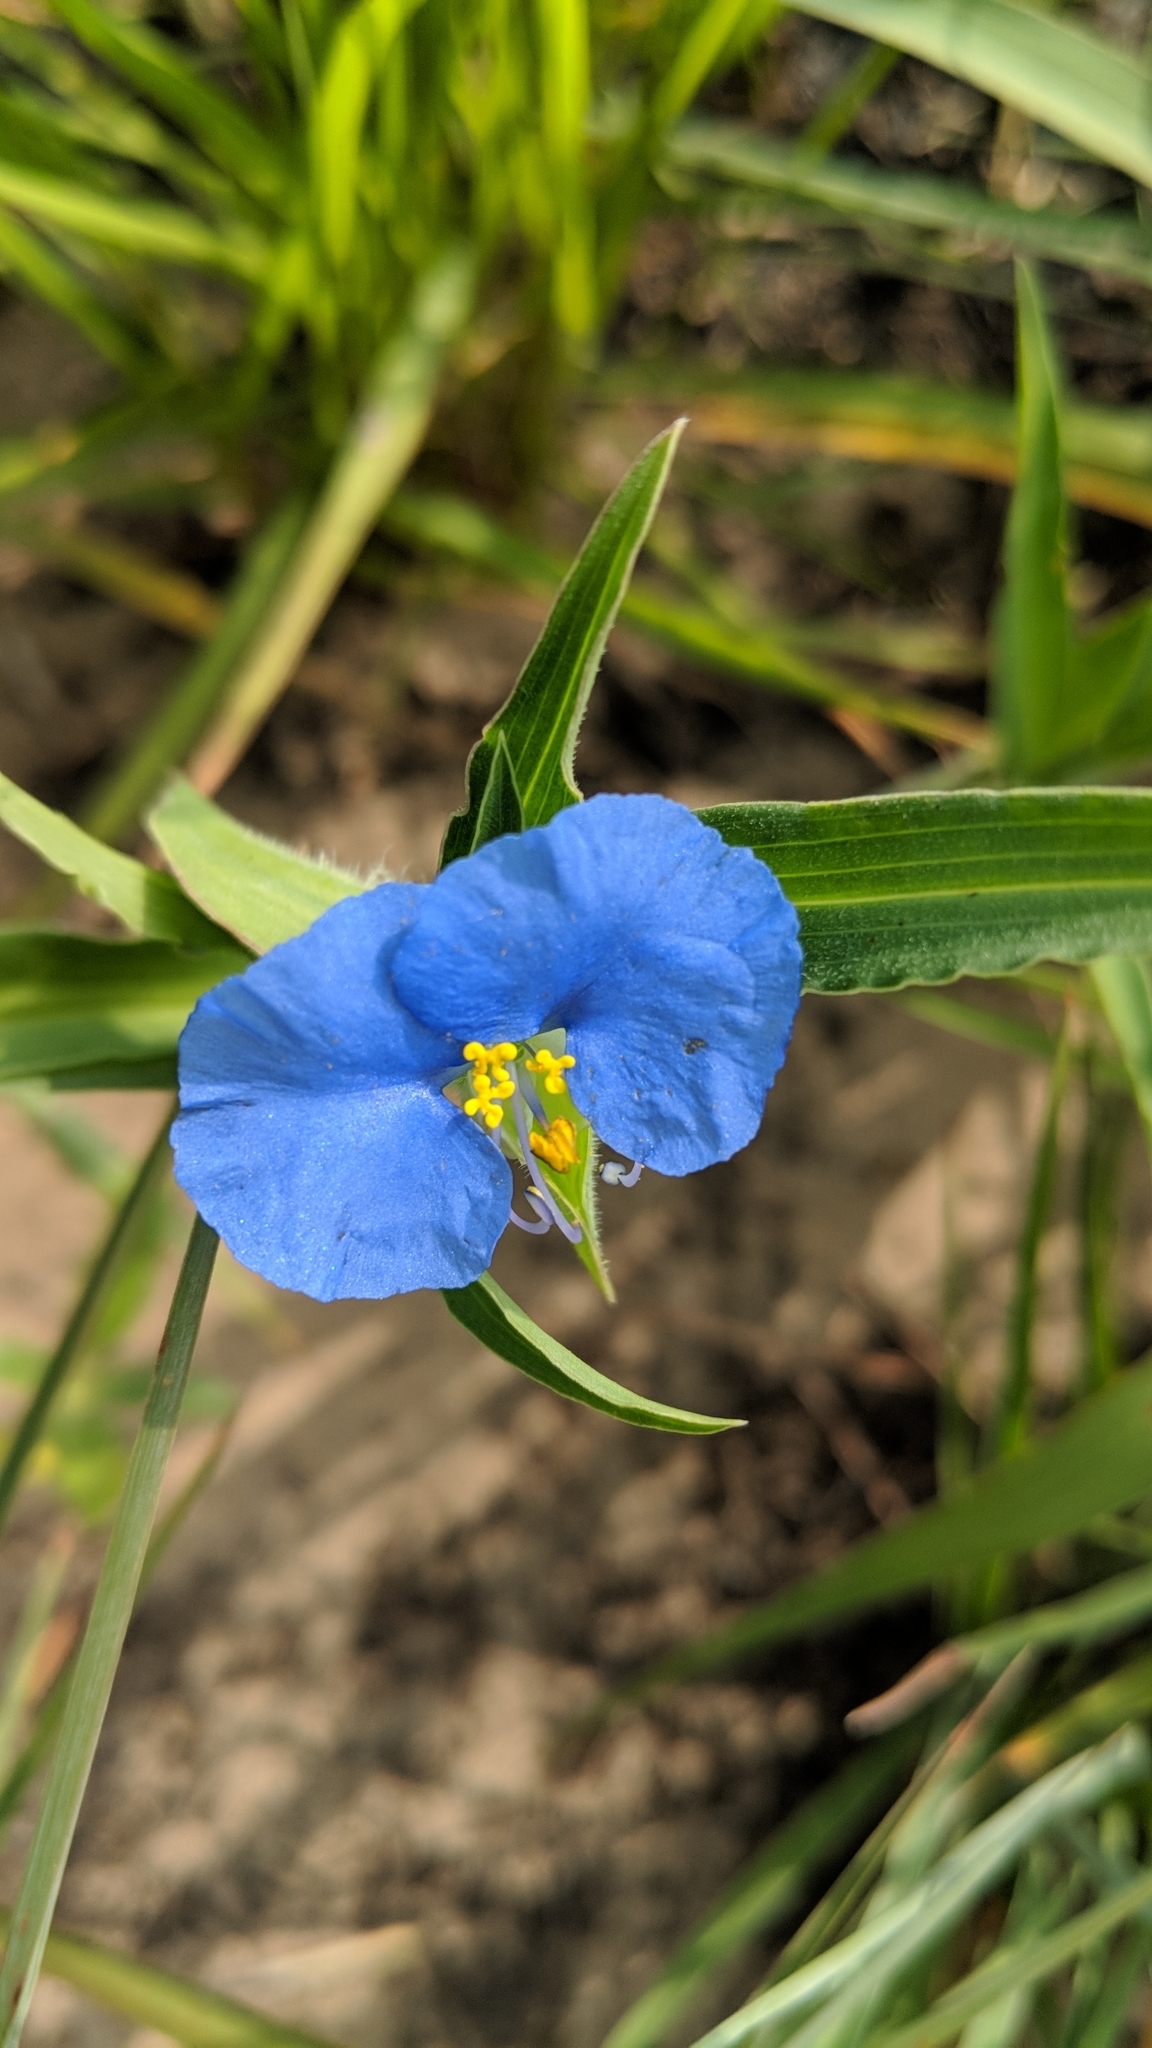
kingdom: Plantae
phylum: Tracheophyta
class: Liliopsida
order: Commelinales
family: Commelinaceae
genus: Commelina
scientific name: Commelina erecta
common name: Blousel blommetjie
